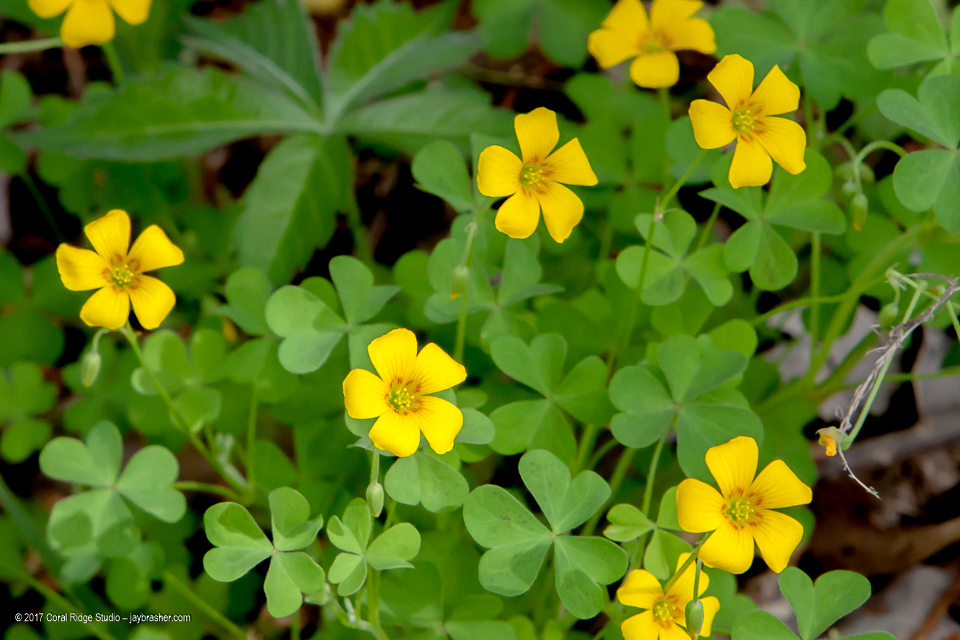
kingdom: Plantae
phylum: Tracheophyta
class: Magnoliopsida
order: Oxalidales
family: Oxalidaceae
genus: Oxalis
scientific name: Oxalis dillenii
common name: Sussex yellow-sorrel
